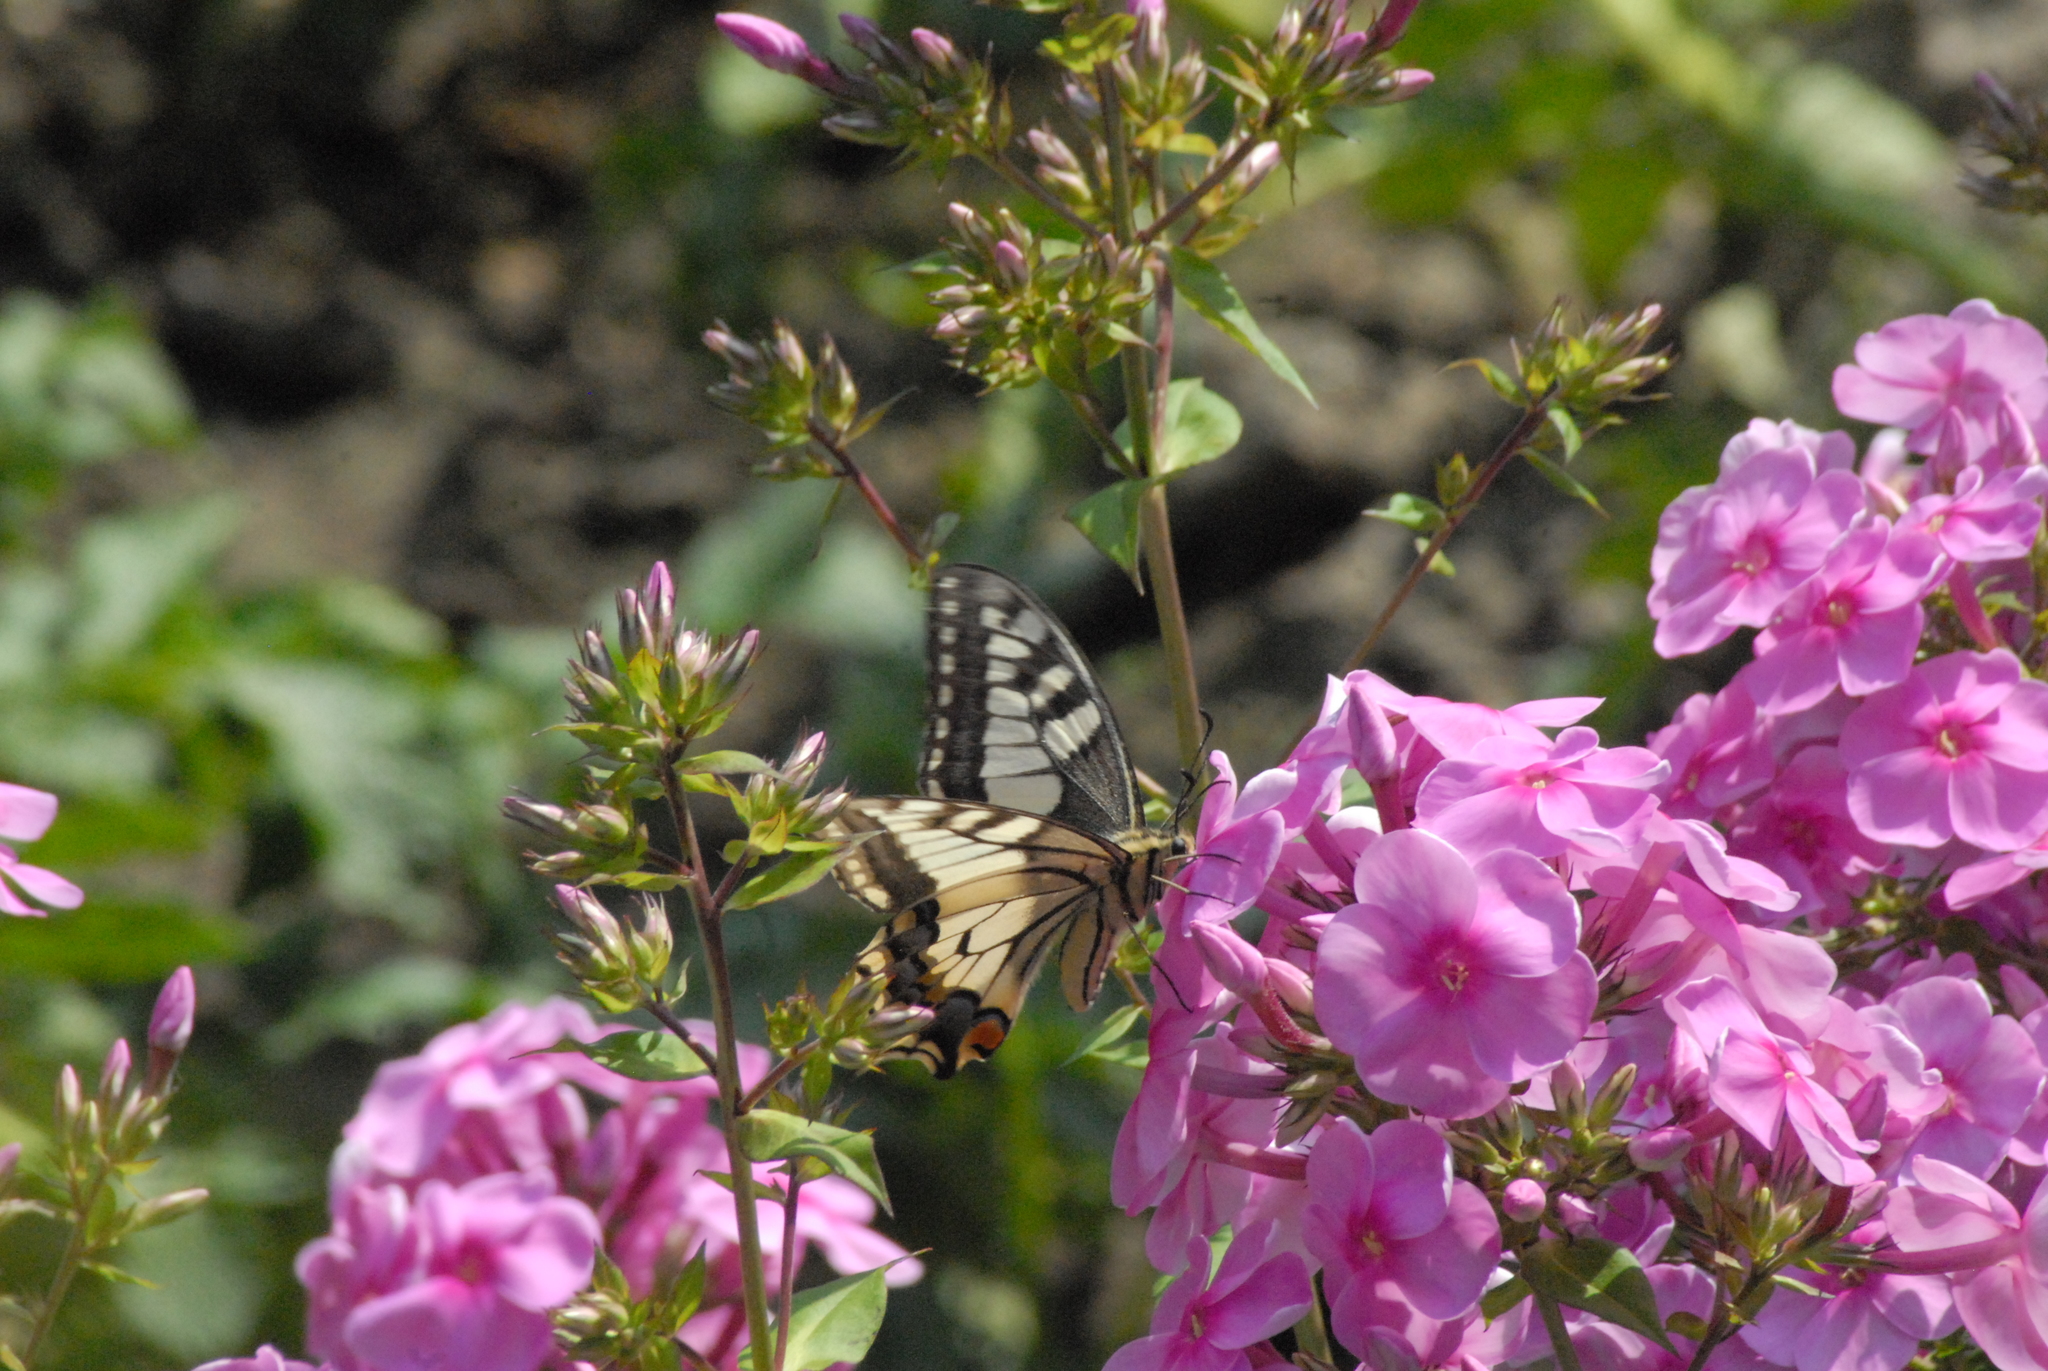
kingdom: Animalia
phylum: Arthropoda
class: Insecta
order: Lepidoptera
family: Papilionidae
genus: Papilio
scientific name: Papilio machaon
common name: Swallowtail
